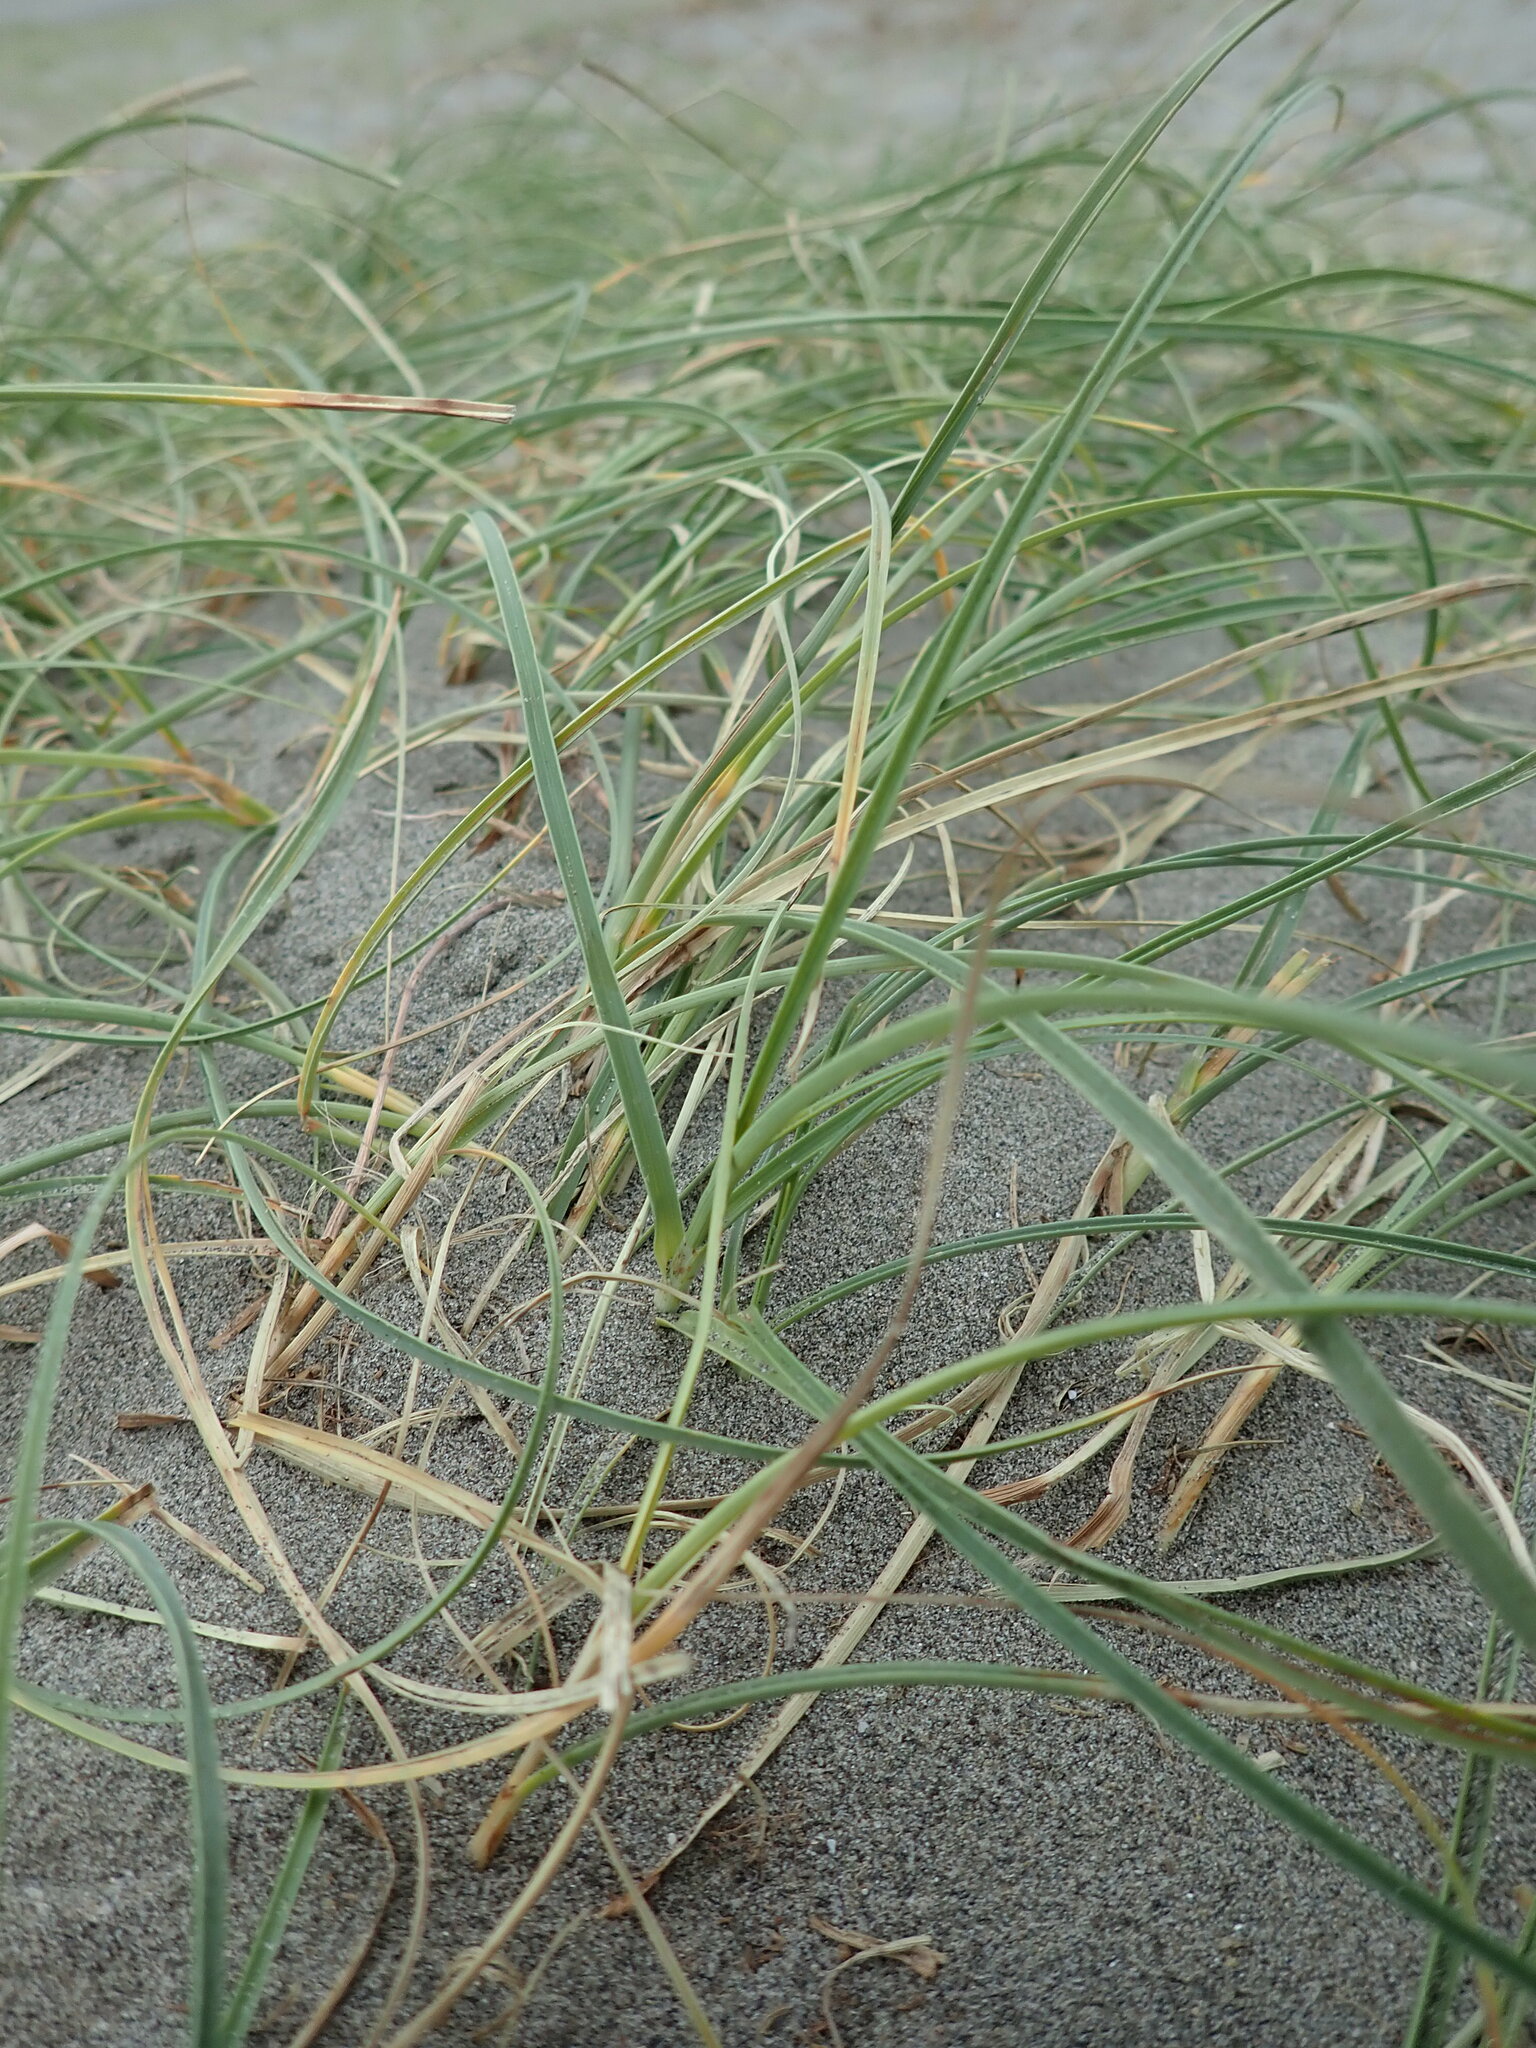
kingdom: Plantae
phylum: Tracheophyta
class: Liliopsida
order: Poales
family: Cyperaceae
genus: Carex
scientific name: Carex pumila
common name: Dwarf sedge
